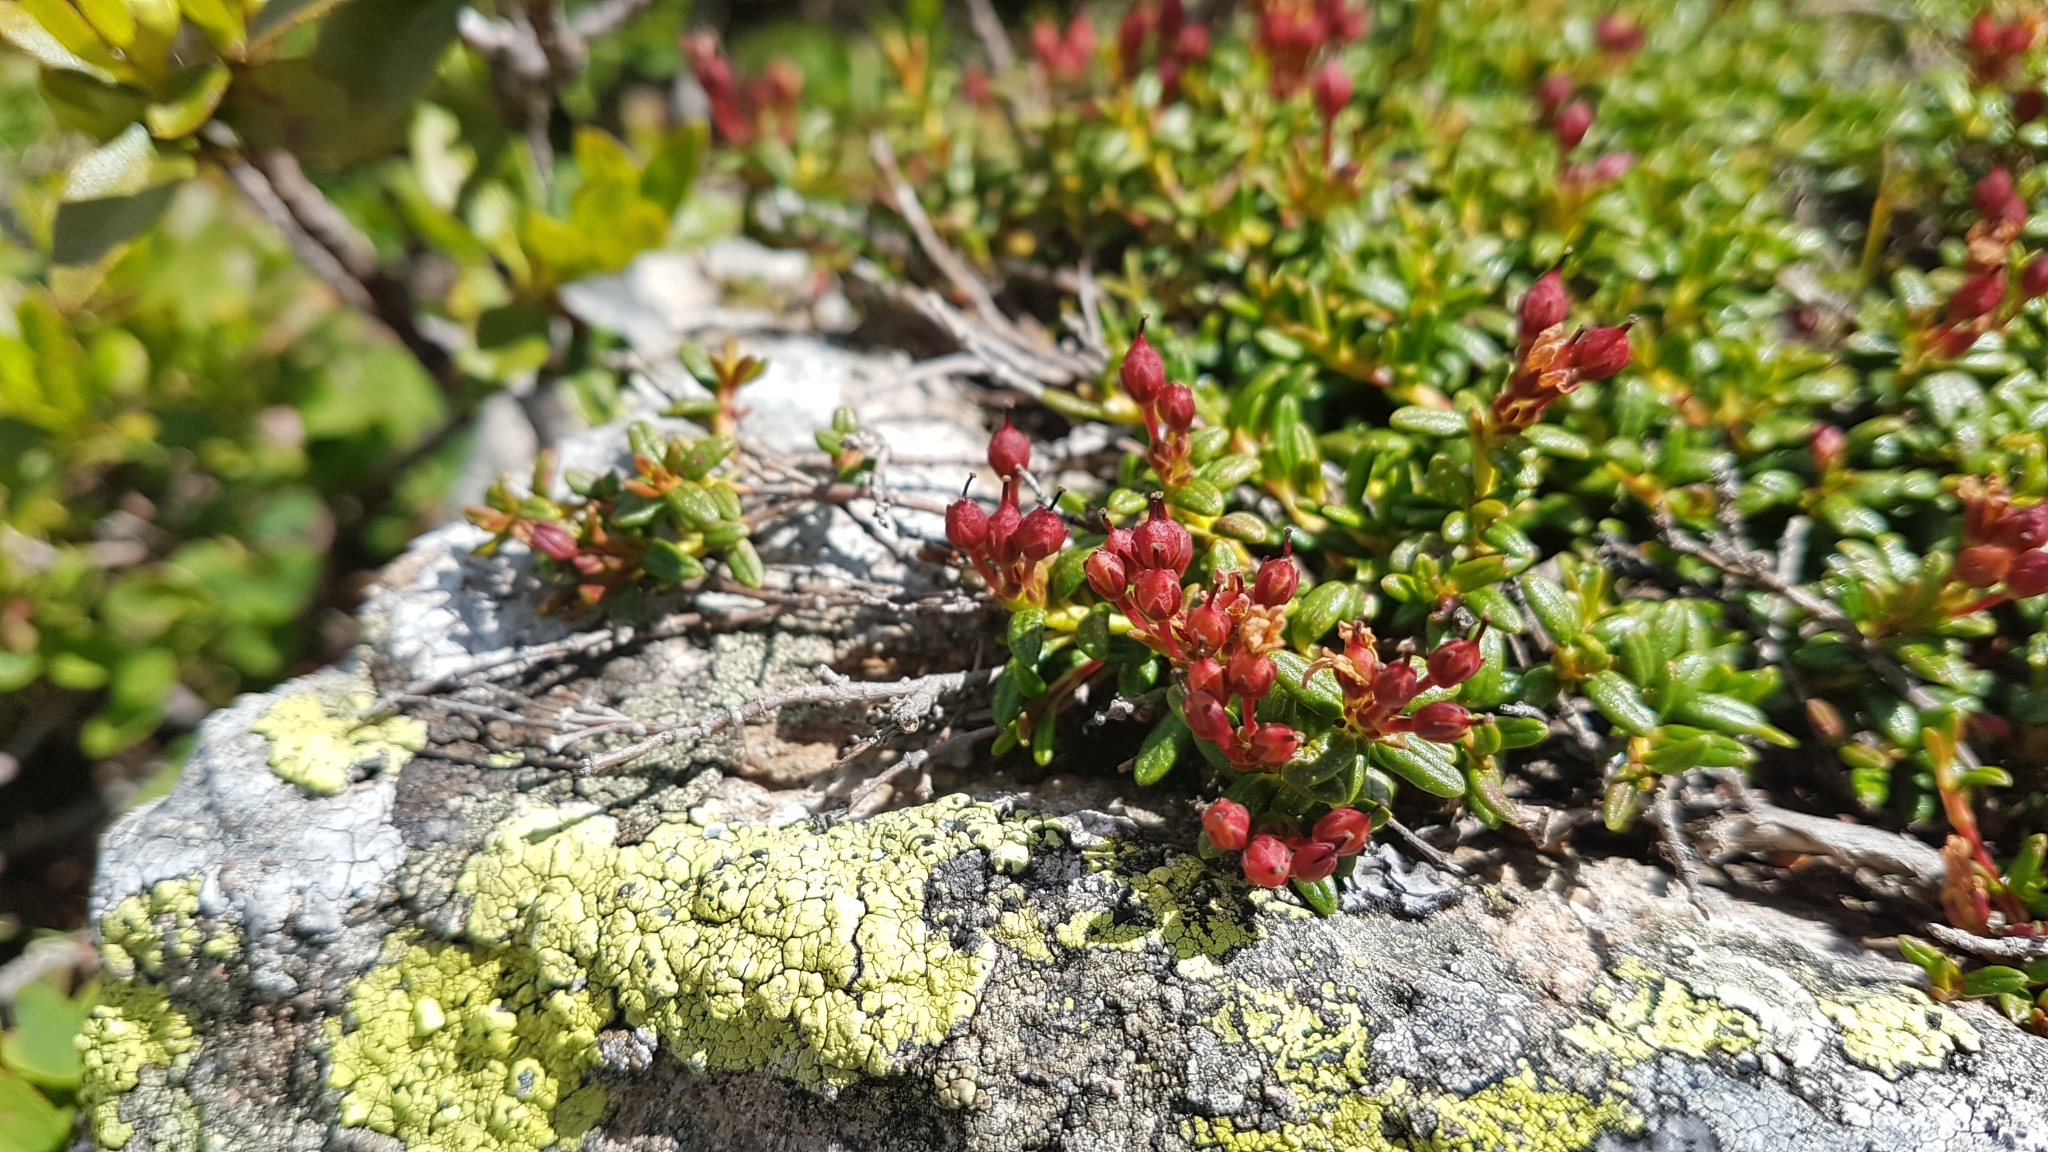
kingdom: Plantae
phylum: Tracheophyta
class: Magnoliopsida
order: Ericales
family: Ericaceae
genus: Kalmia
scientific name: Kalmia procumbens
